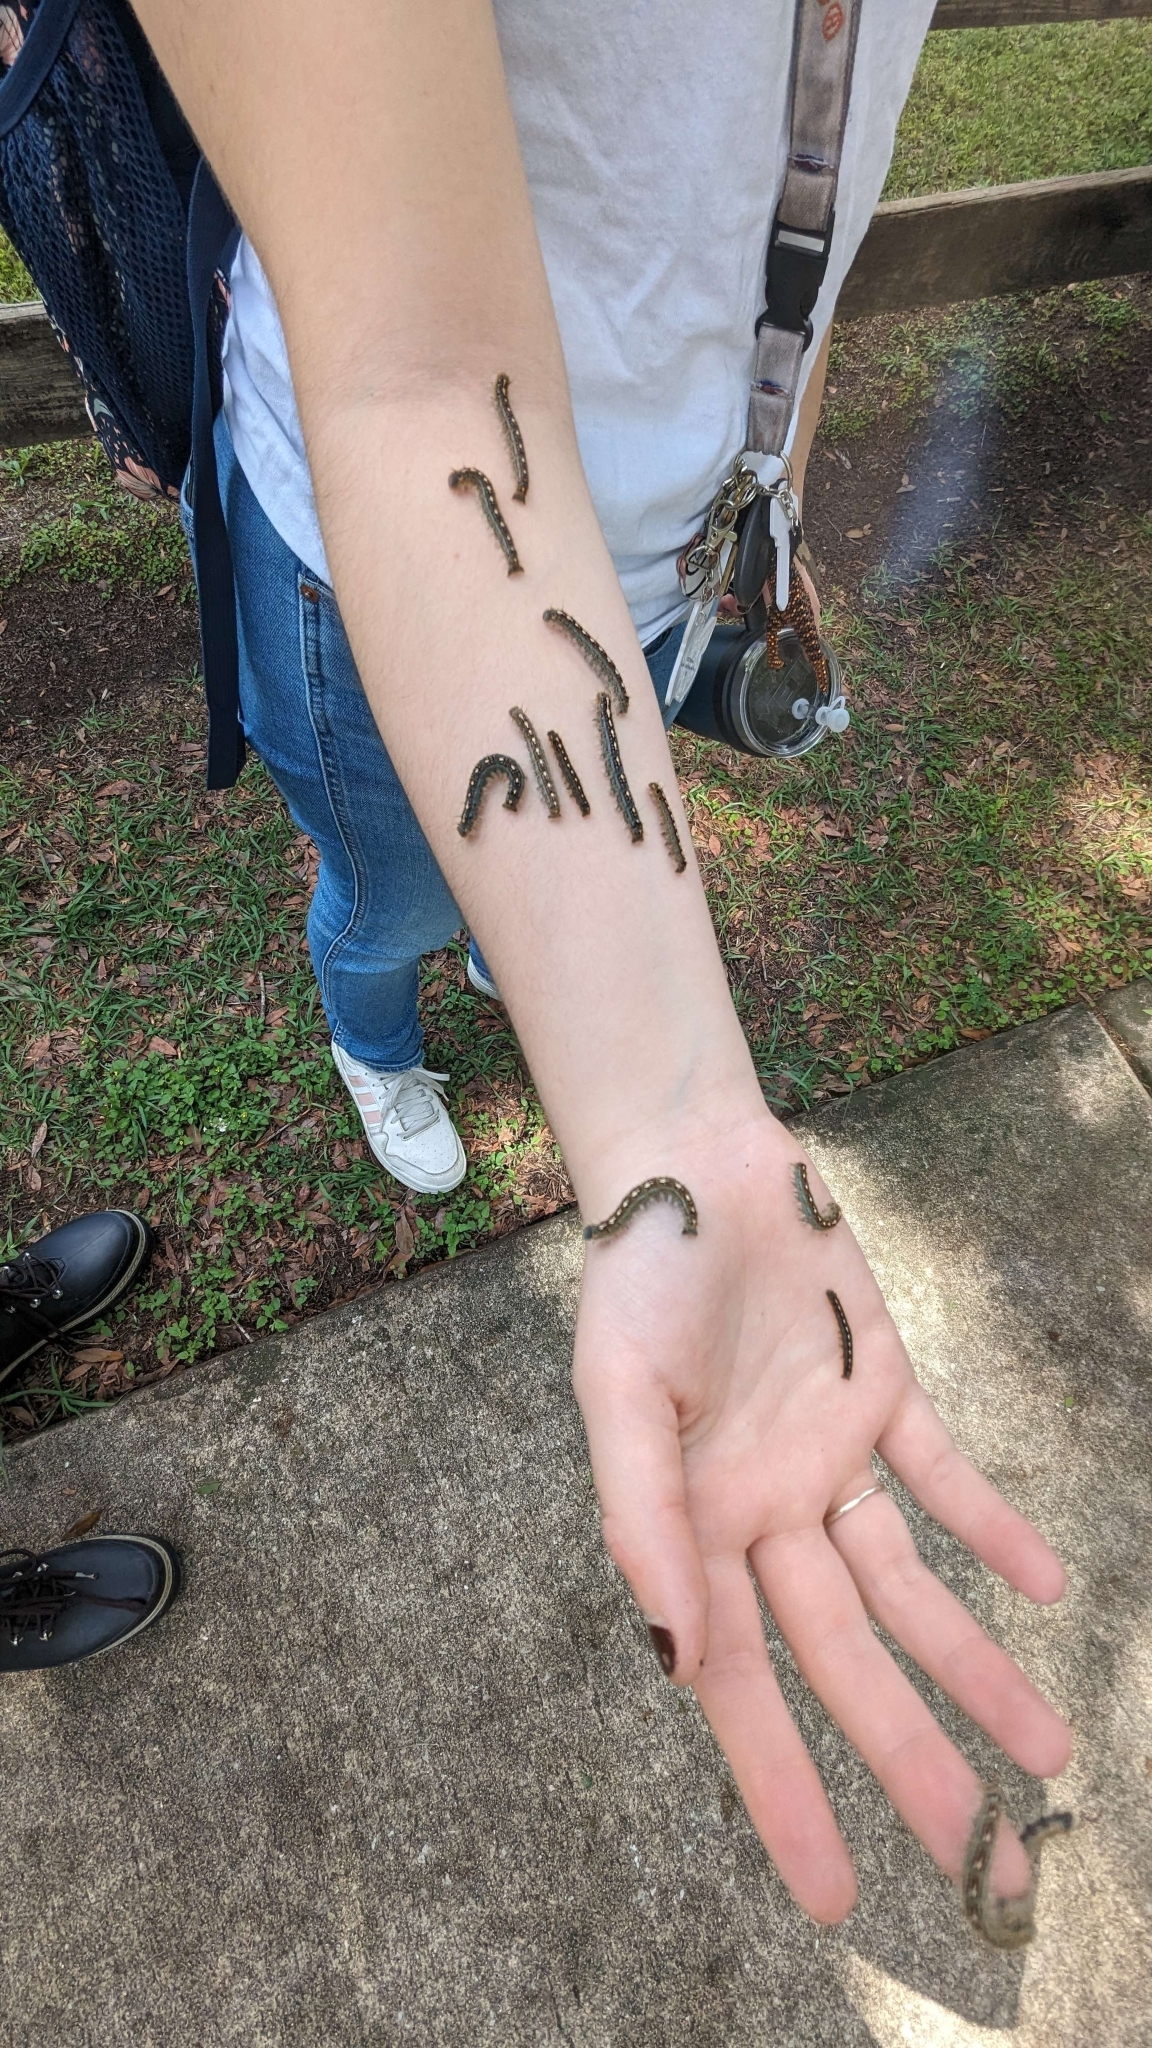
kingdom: Animalia
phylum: Arthropoda
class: Insecta
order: Lepidoptera
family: Lasiocampidae
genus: Malacosoma
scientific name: Malacosoma disstria
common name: Forest tent caterpillar
